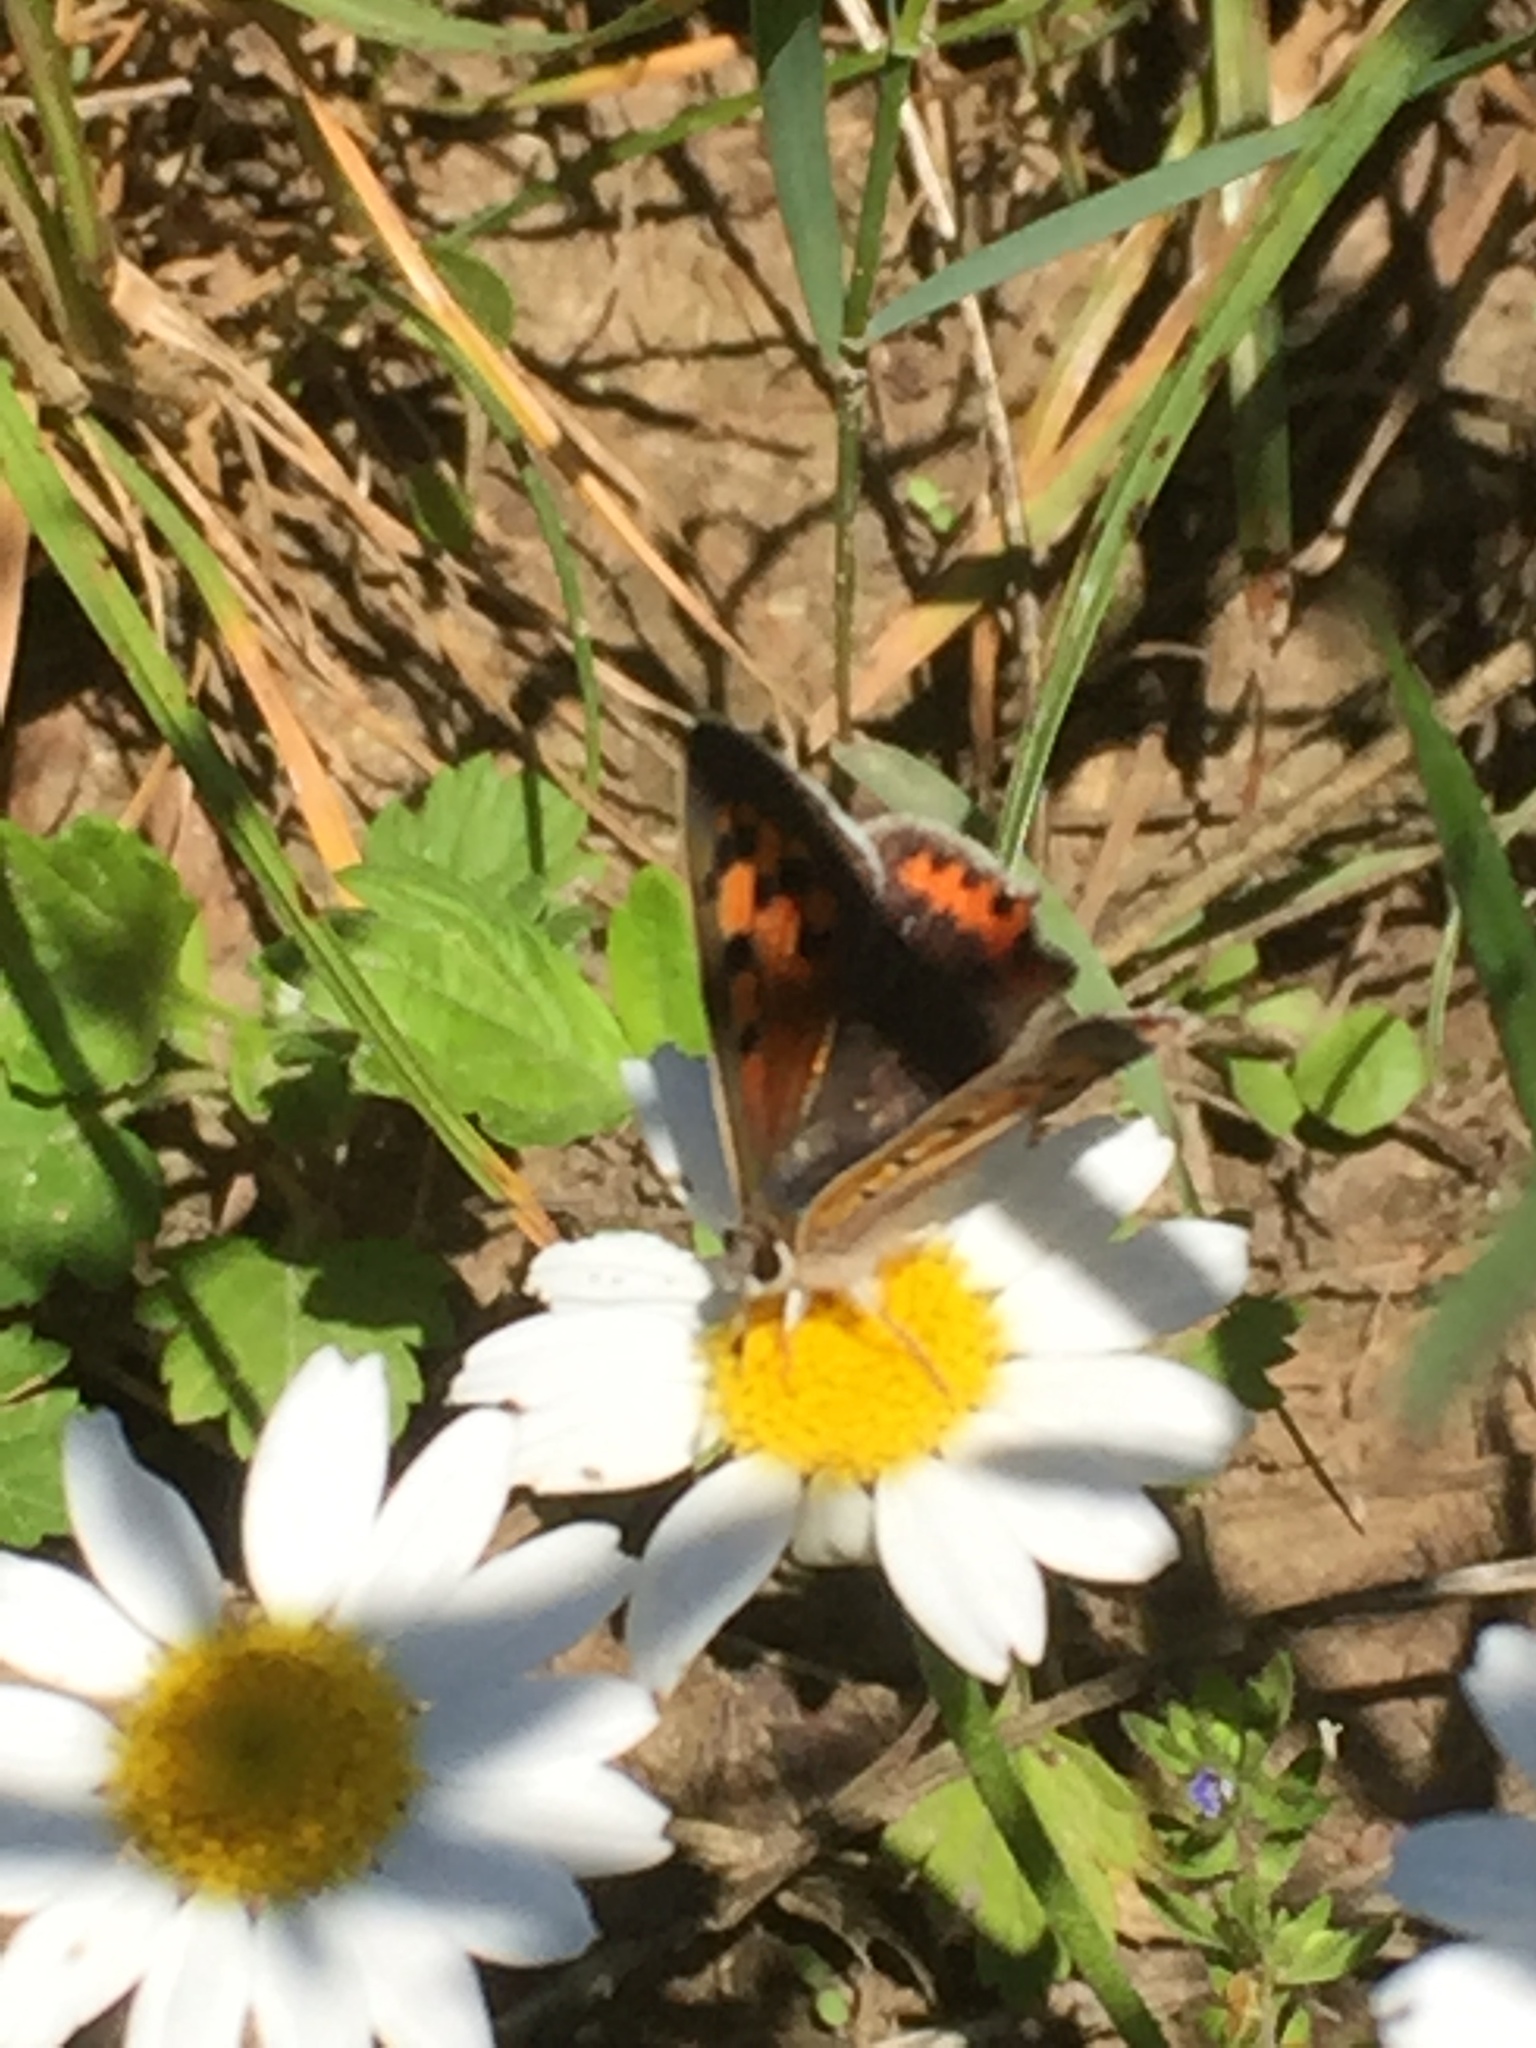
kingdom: Animalia
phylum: Arthropoda
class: Insecta
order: Lepidoptera
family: Lycaenidae
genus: Lycaena
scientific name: Lycaena phlaeas
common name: Small copper
